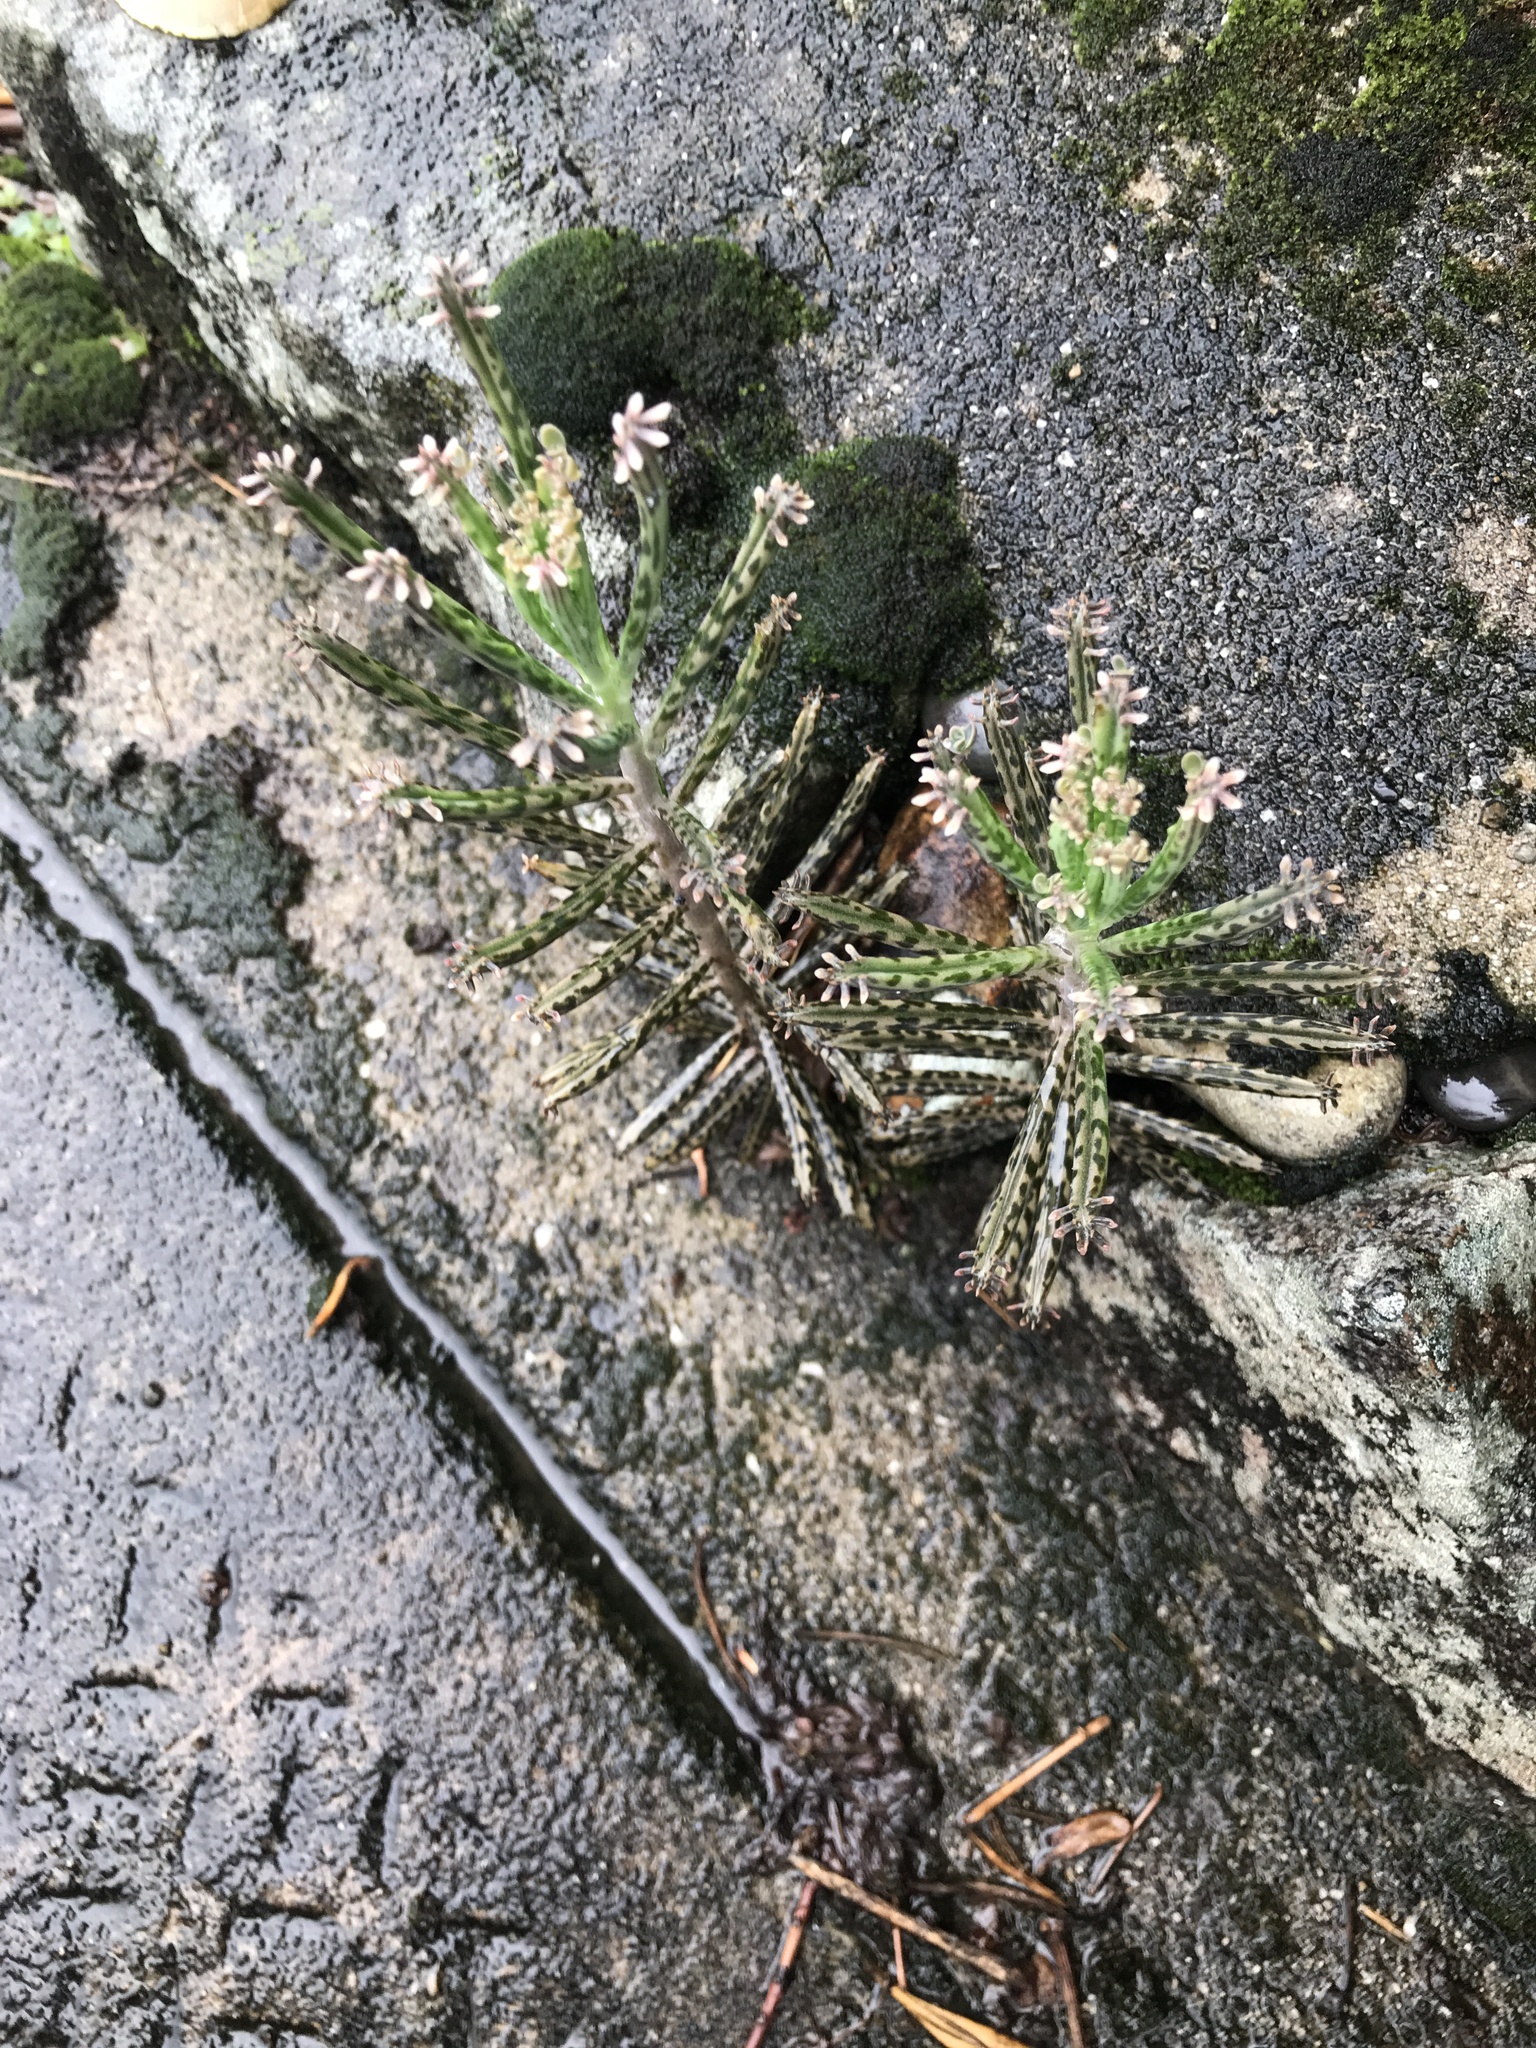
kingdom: Plantae
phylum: Tracheophyta
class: Magnoliopsida
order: Saxifragales
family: Crassulaceae
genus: Kalanchoe
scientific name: Kalanchoe delagoensis
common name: Chandelier plant
